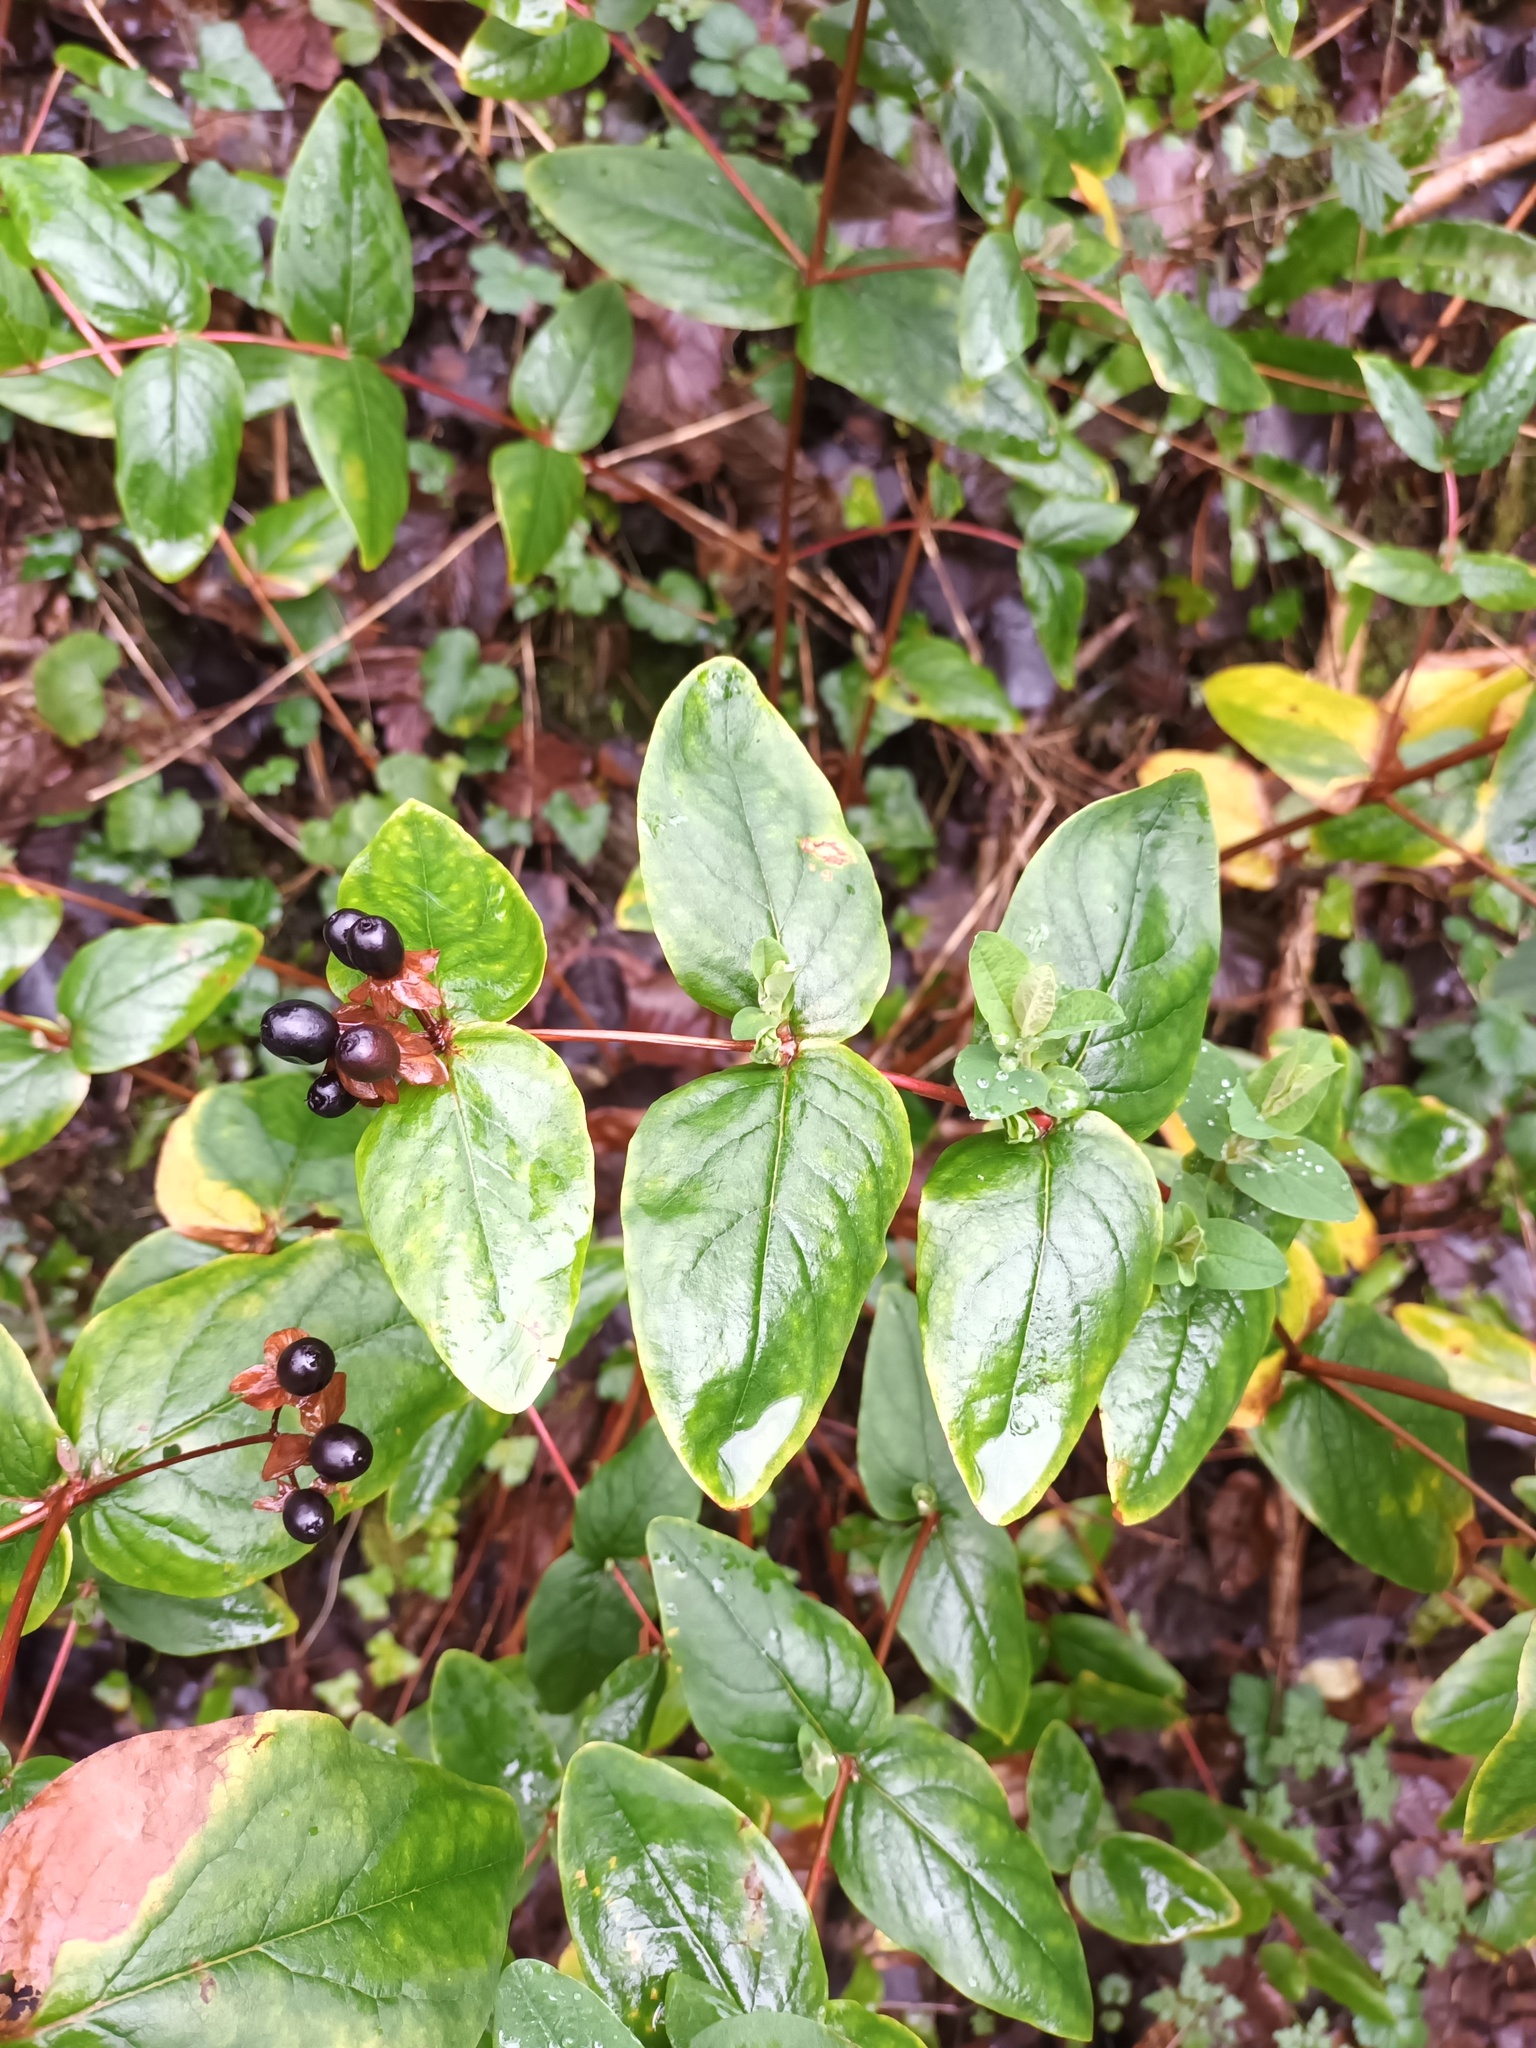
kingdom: Plantae
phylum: Tracheophyta
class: Magnoliopsida
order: Malpighiales
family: Hypericaceae
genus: Hypericum
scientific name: Hypericum androsaemum
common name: Sweet-amber
